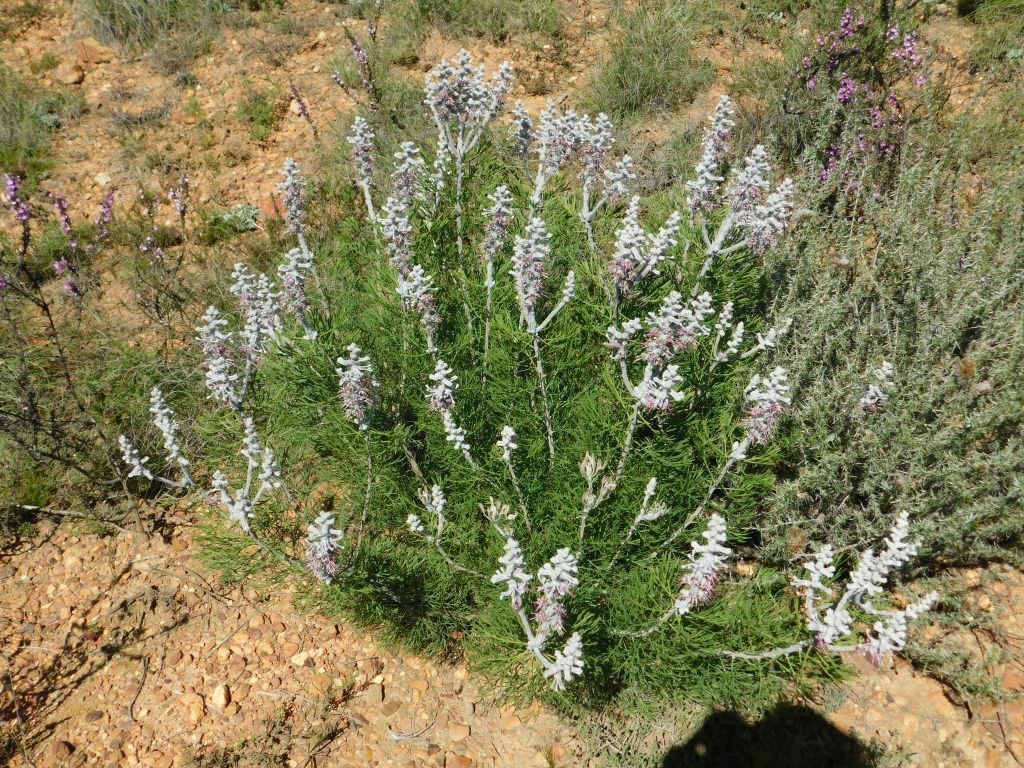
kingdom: Plantae
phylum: Tracheophyta
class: Magnoliopsida
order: Proteales
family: Proteaceae
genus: Paranomus
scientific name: Paranomus dispersus
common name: Long-head sceptre
